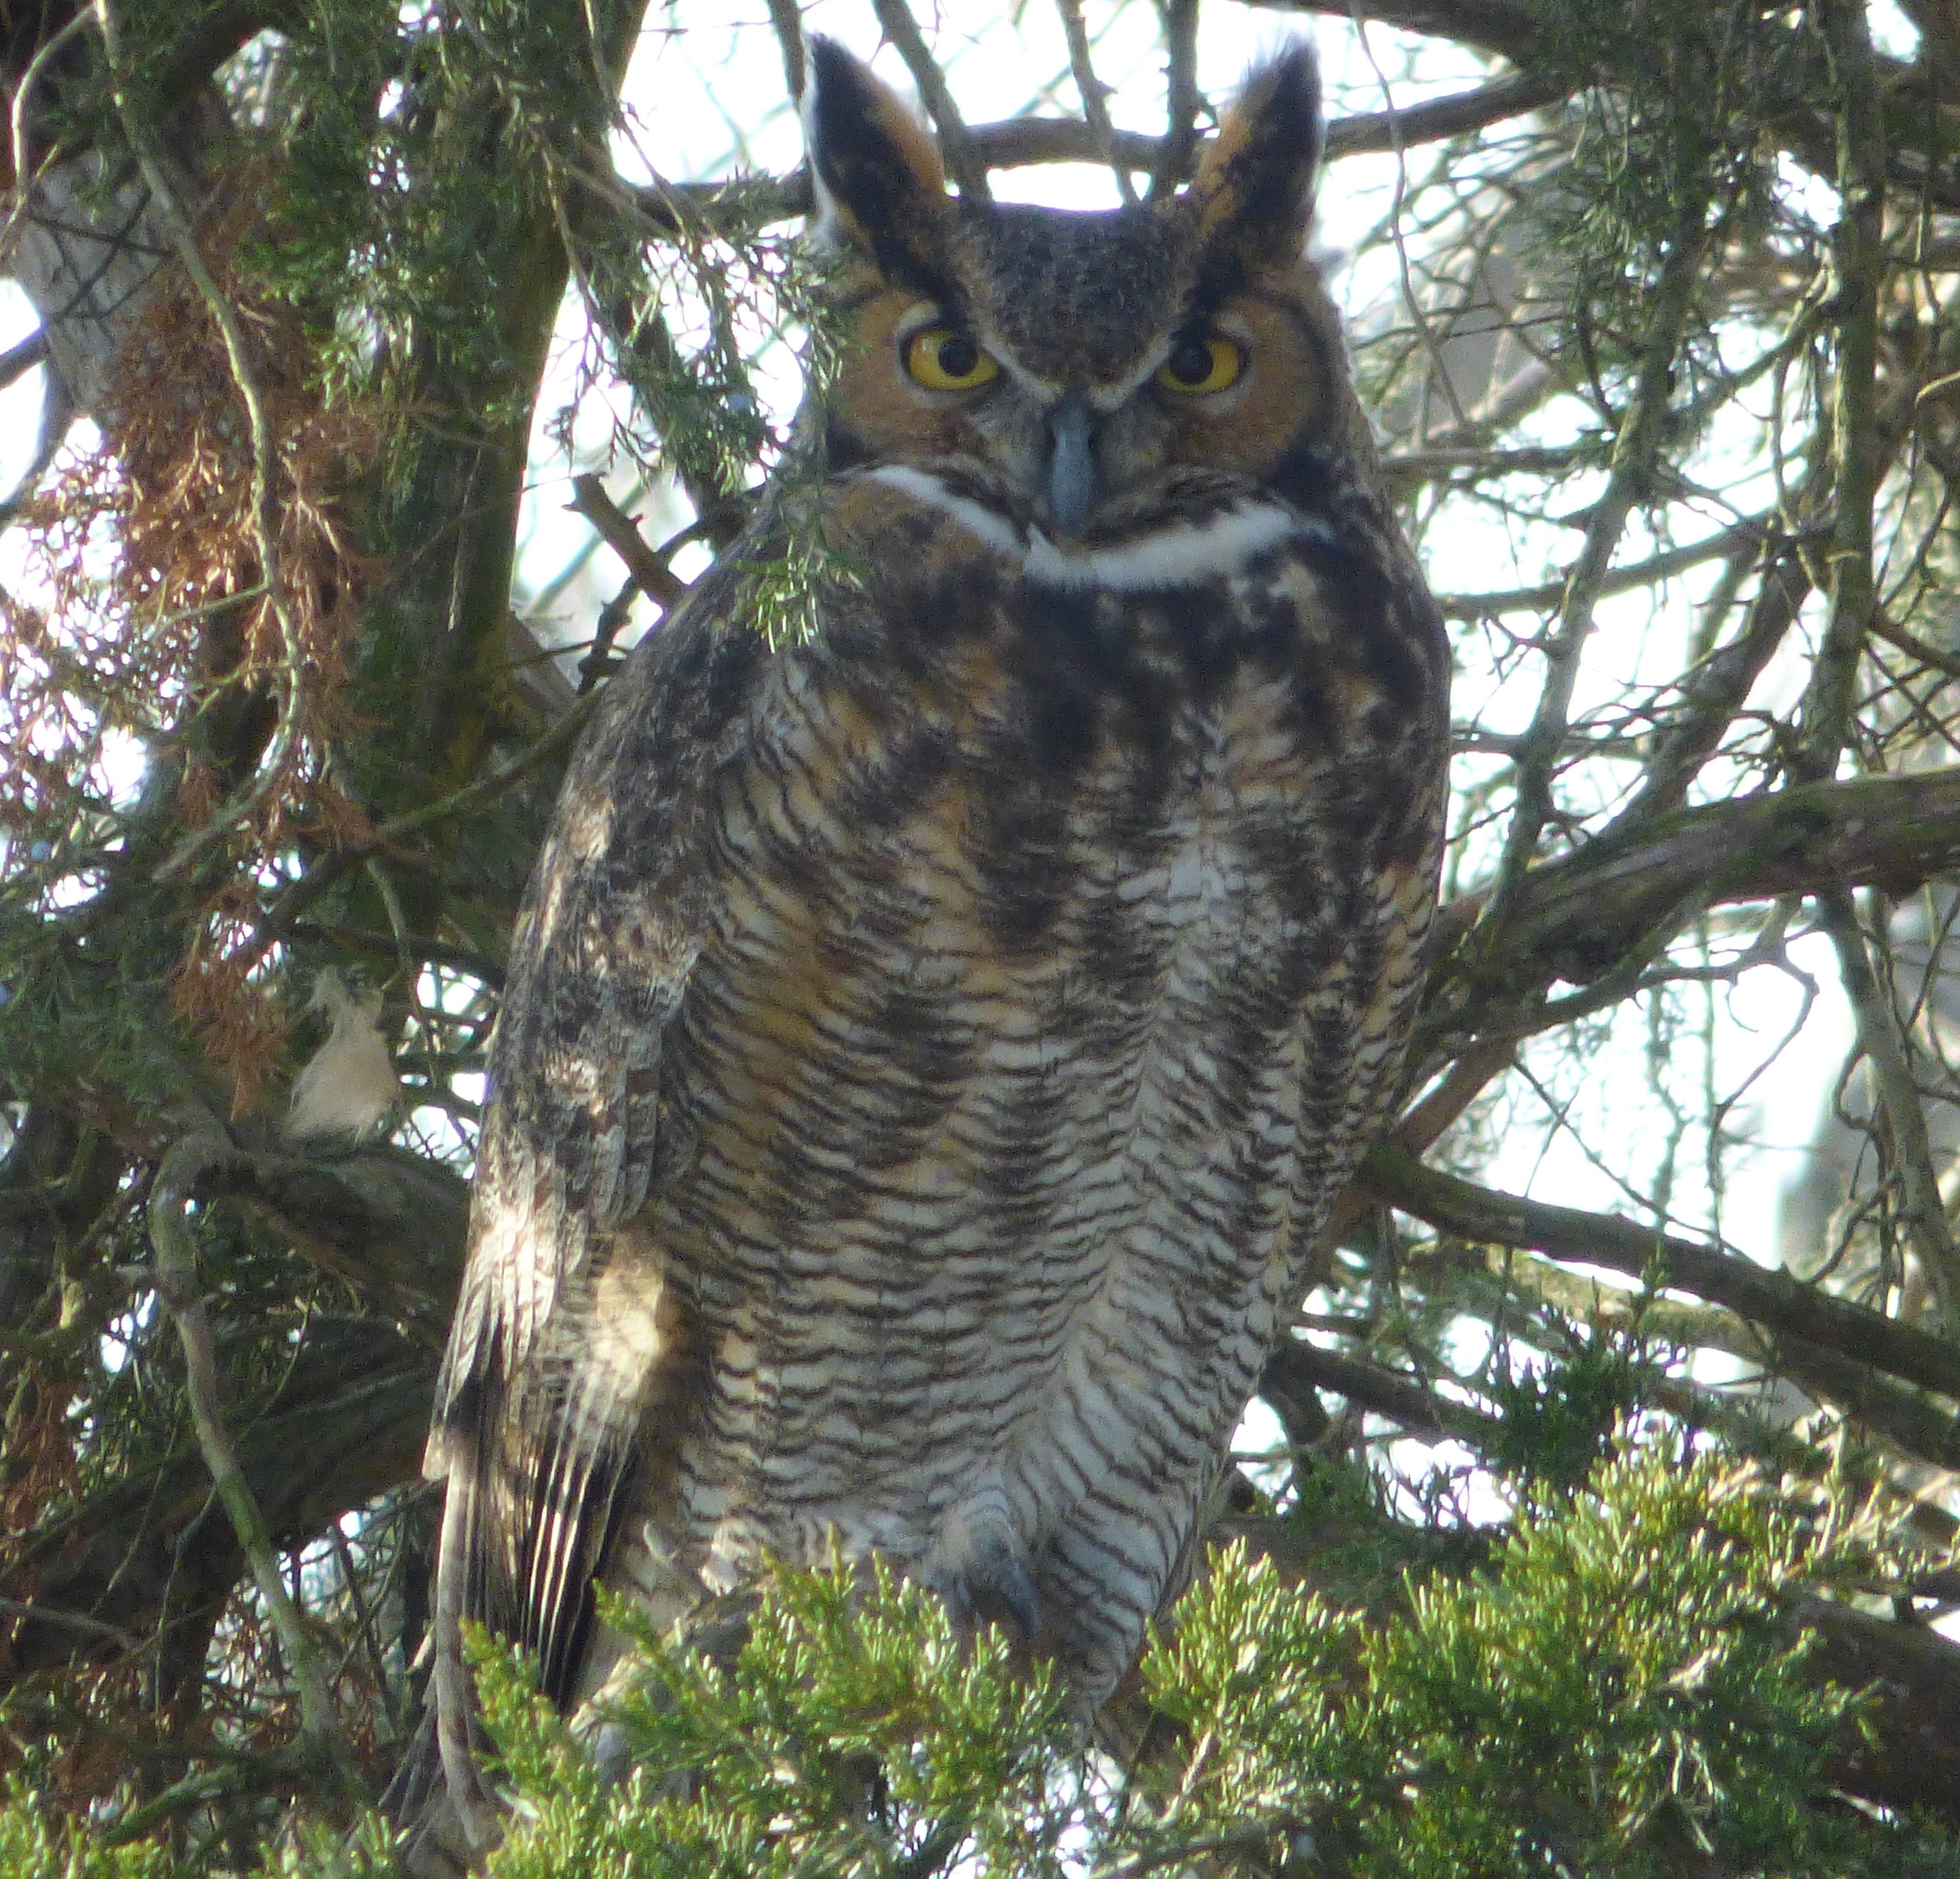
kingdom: Animalia
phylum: Chordata
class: Aves
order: Strigiformes
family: Strigidae
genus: Bubo
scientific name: Bubo virginianus
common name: Great horned owl
